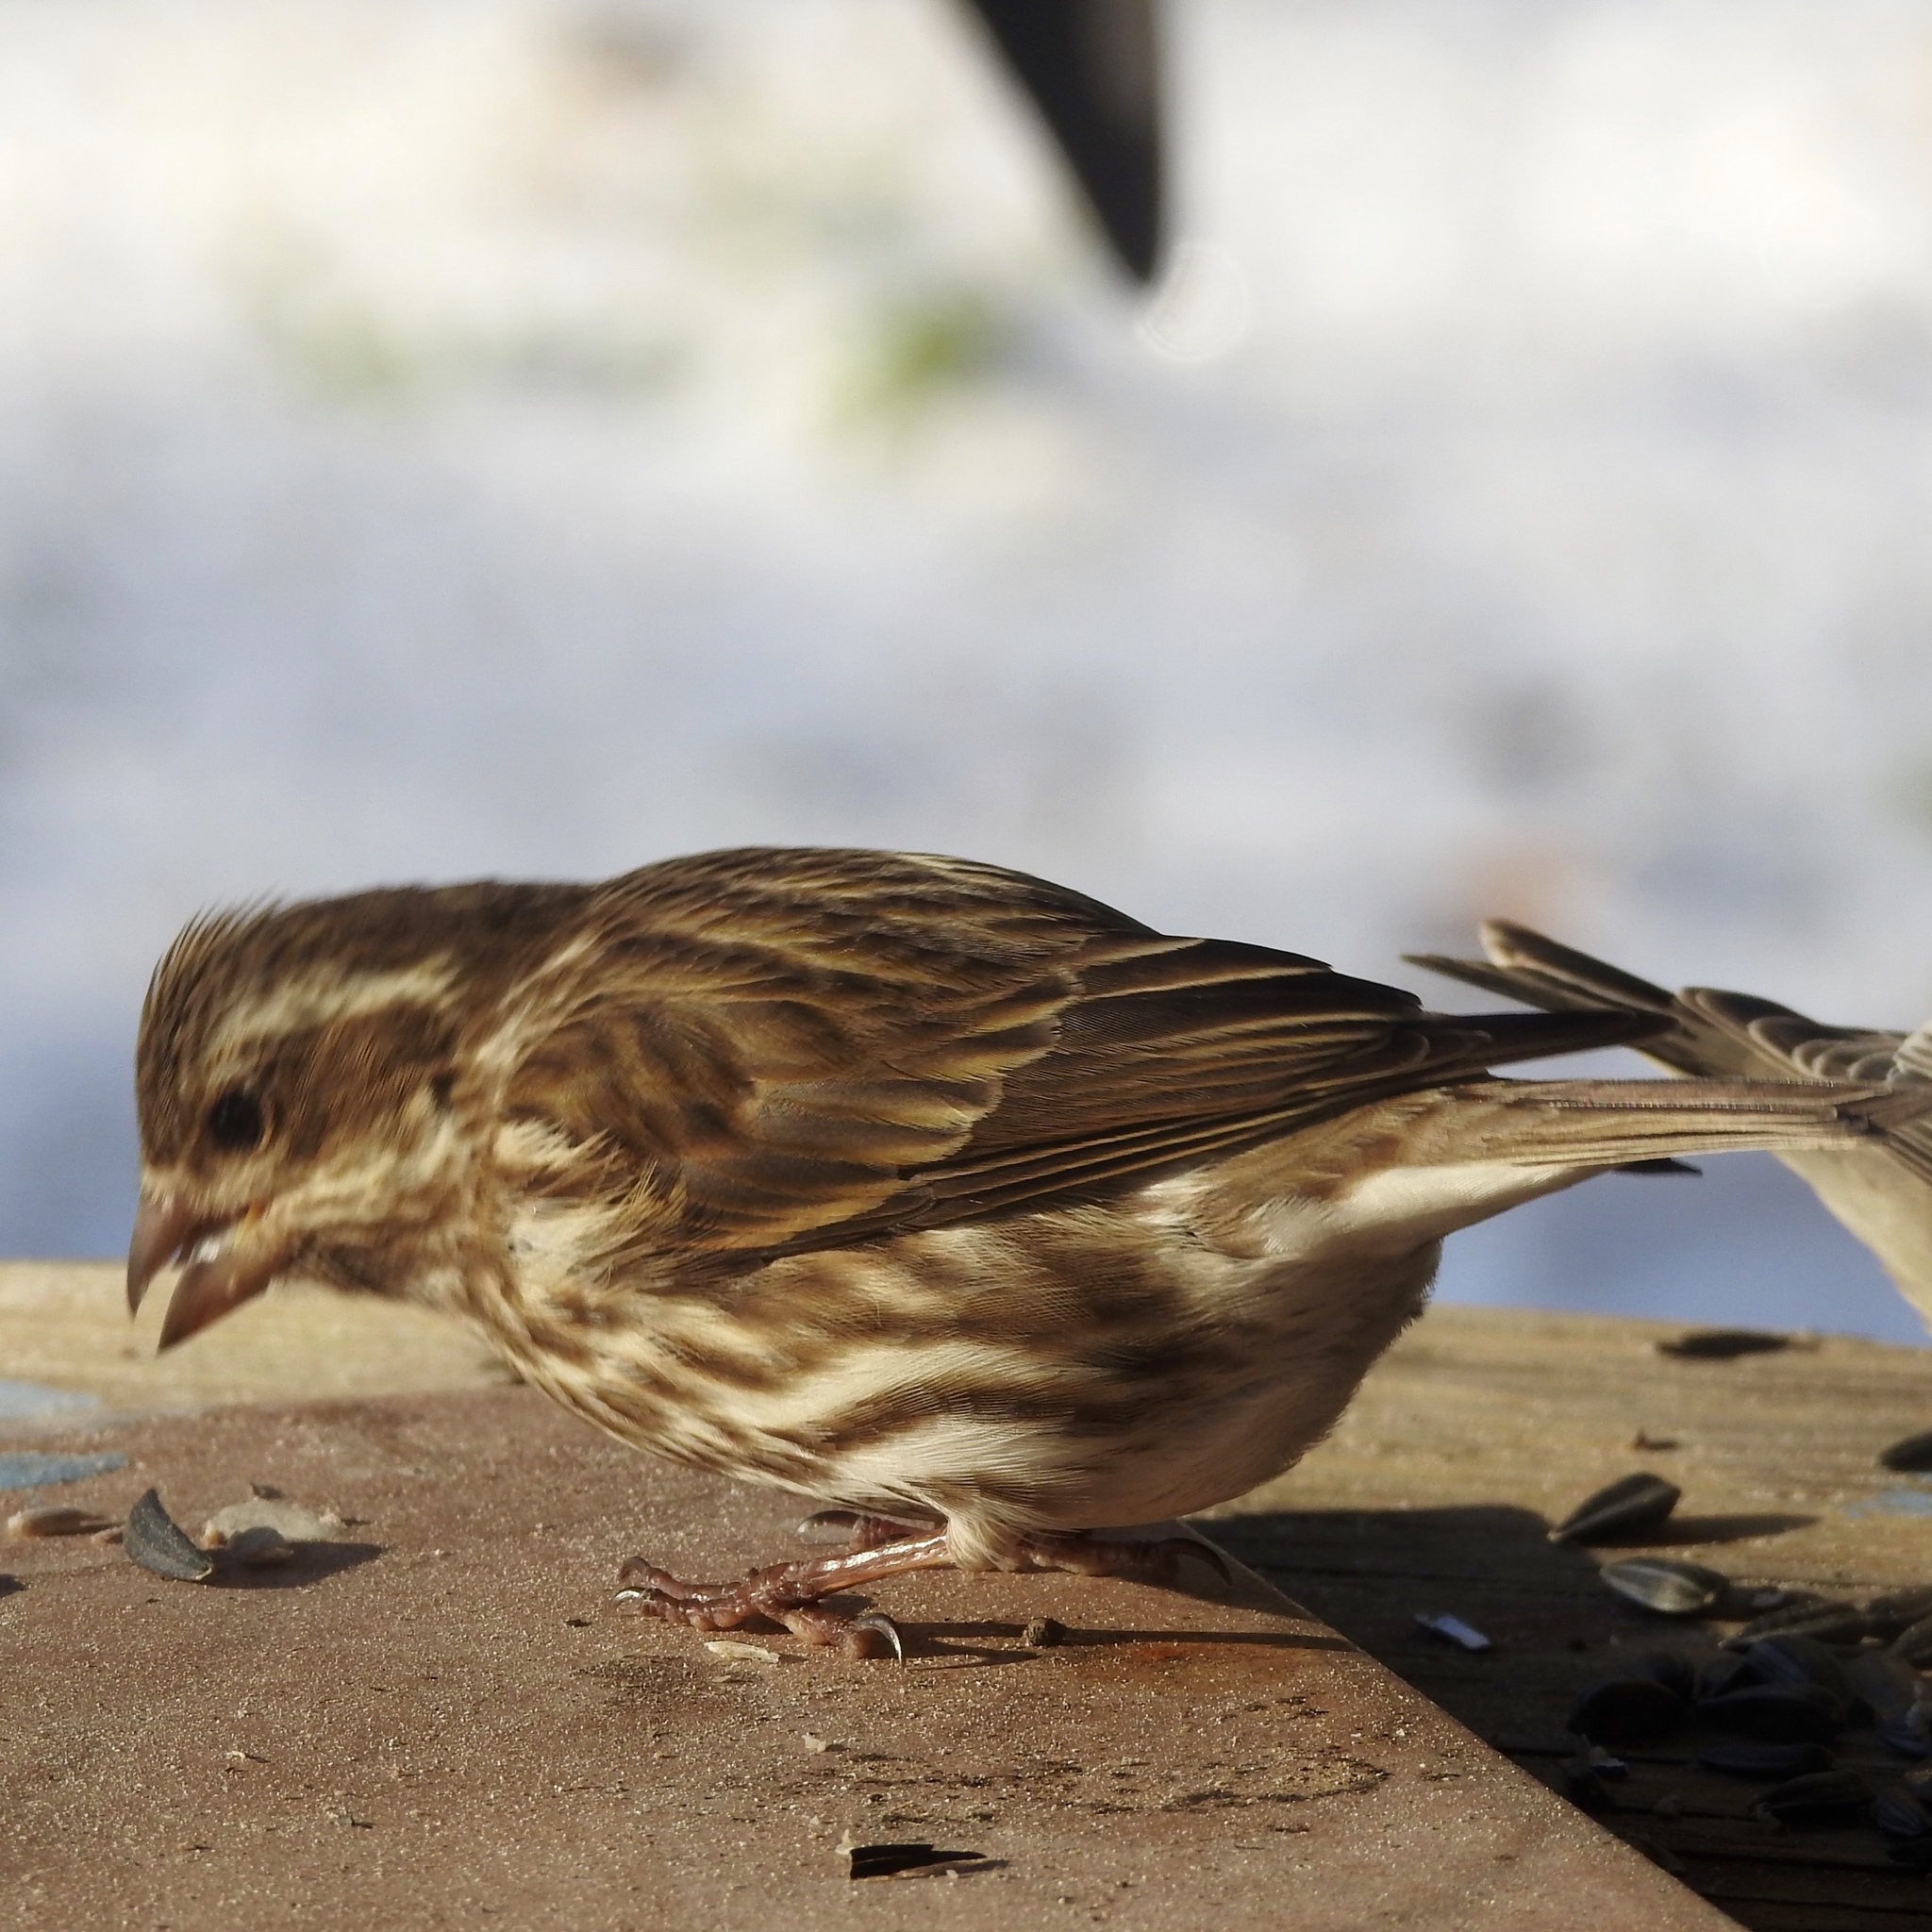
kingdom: Animalia
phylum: Chordata
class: Aves
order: Passeriformes
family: Fringillidae
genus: Haemorhous
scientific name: Haemorhous purpureus
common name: Purple finch
